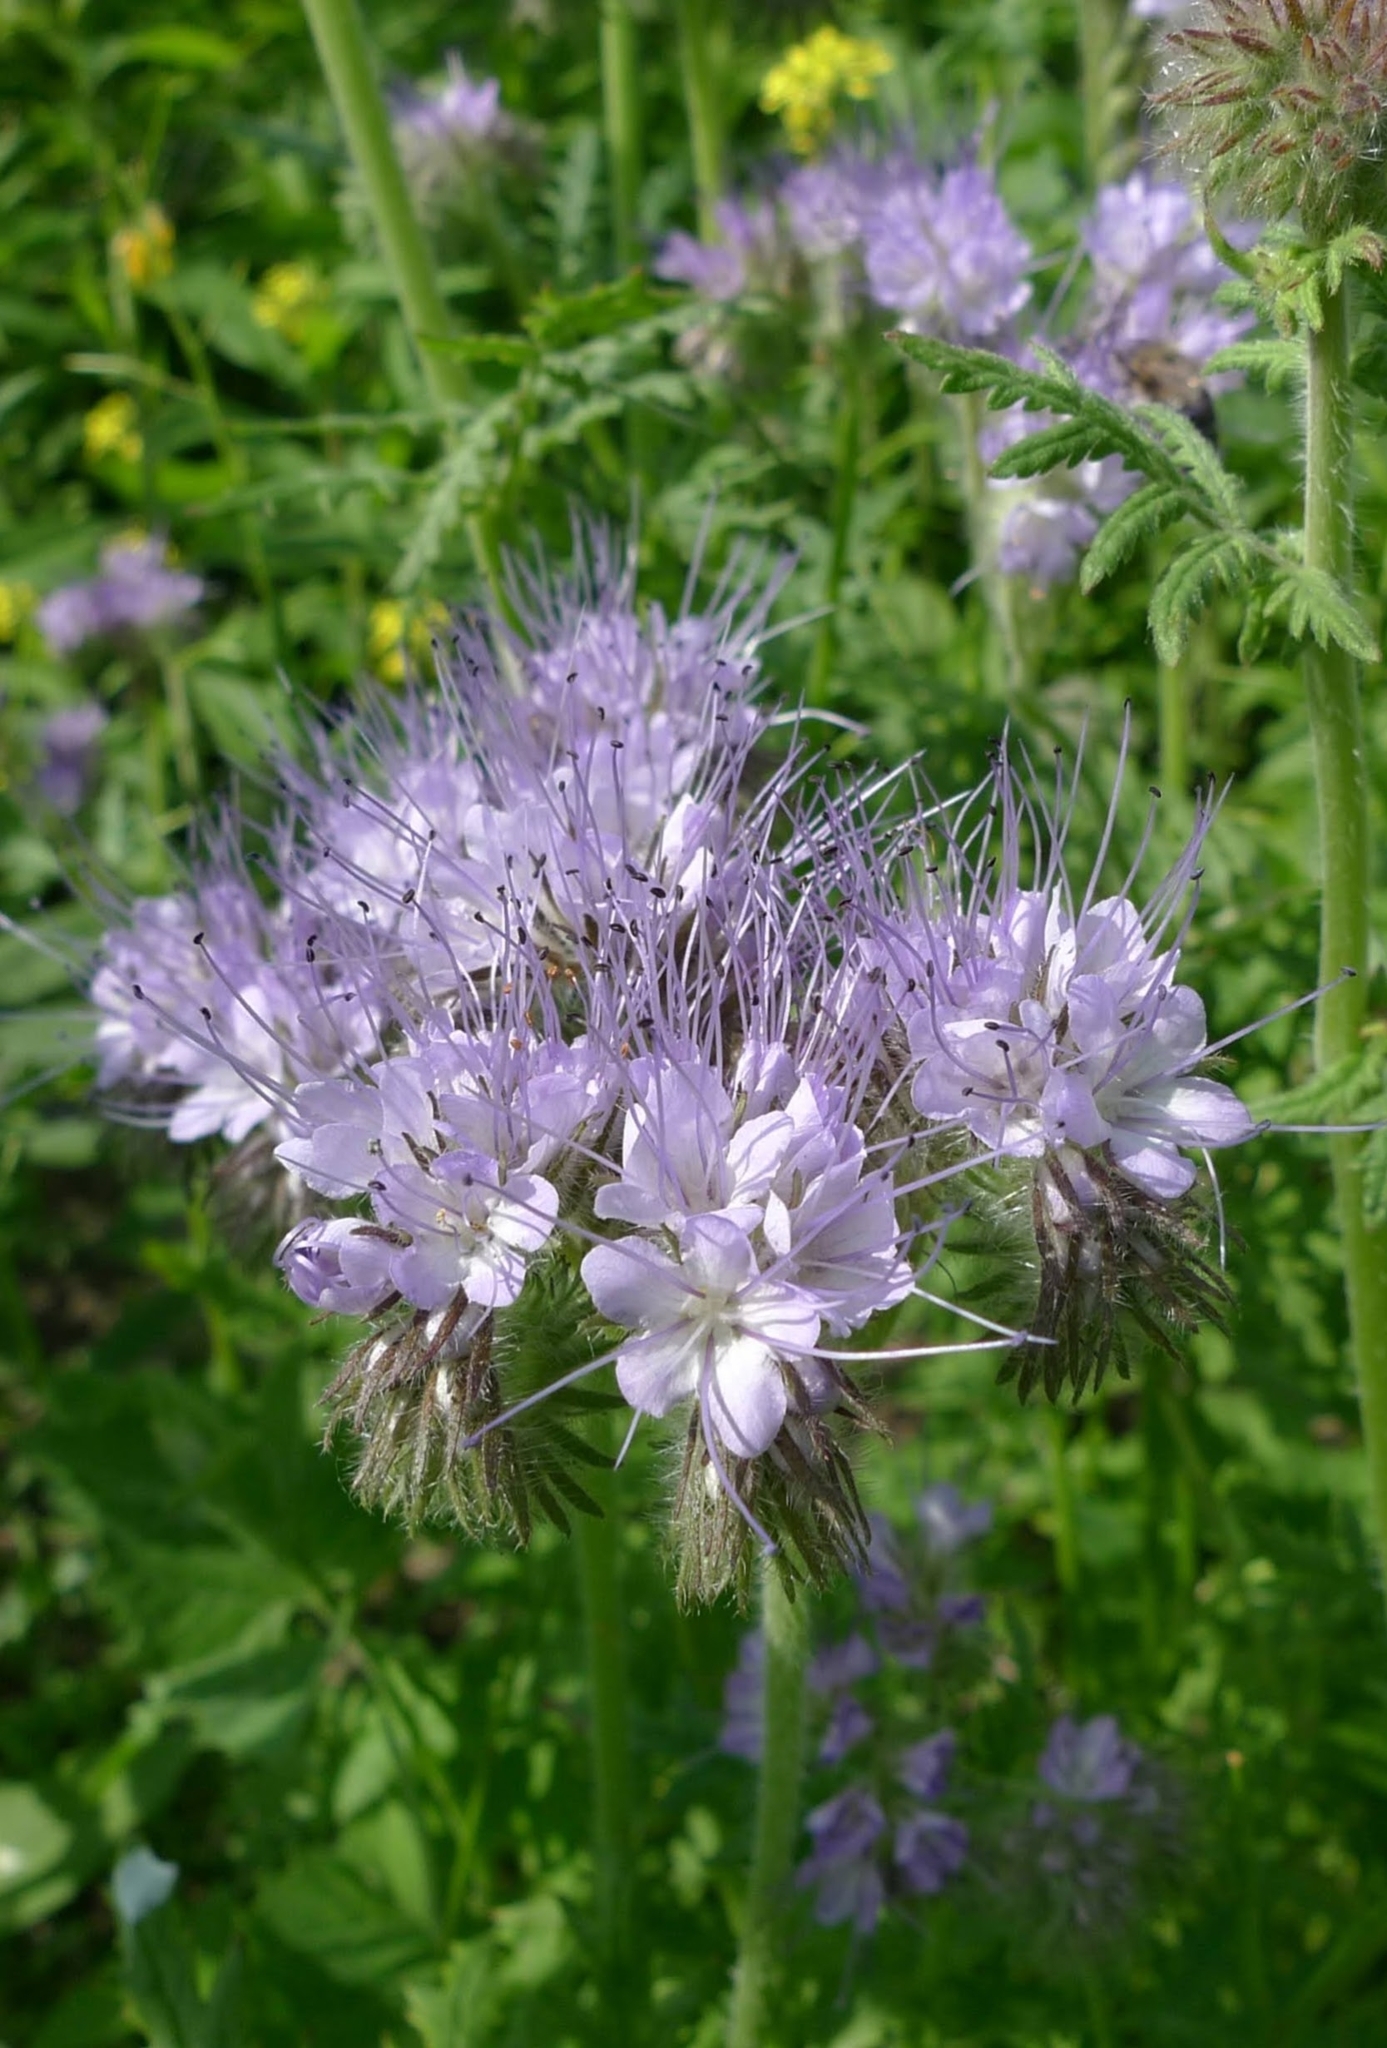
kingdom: Plantae
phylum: Tracheophyta
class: Magnoliopsida
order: Boraginales
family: Hydrophyllaceae
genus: Phacelia
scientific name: Phacelia tanacetifolia
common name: Phacelia
